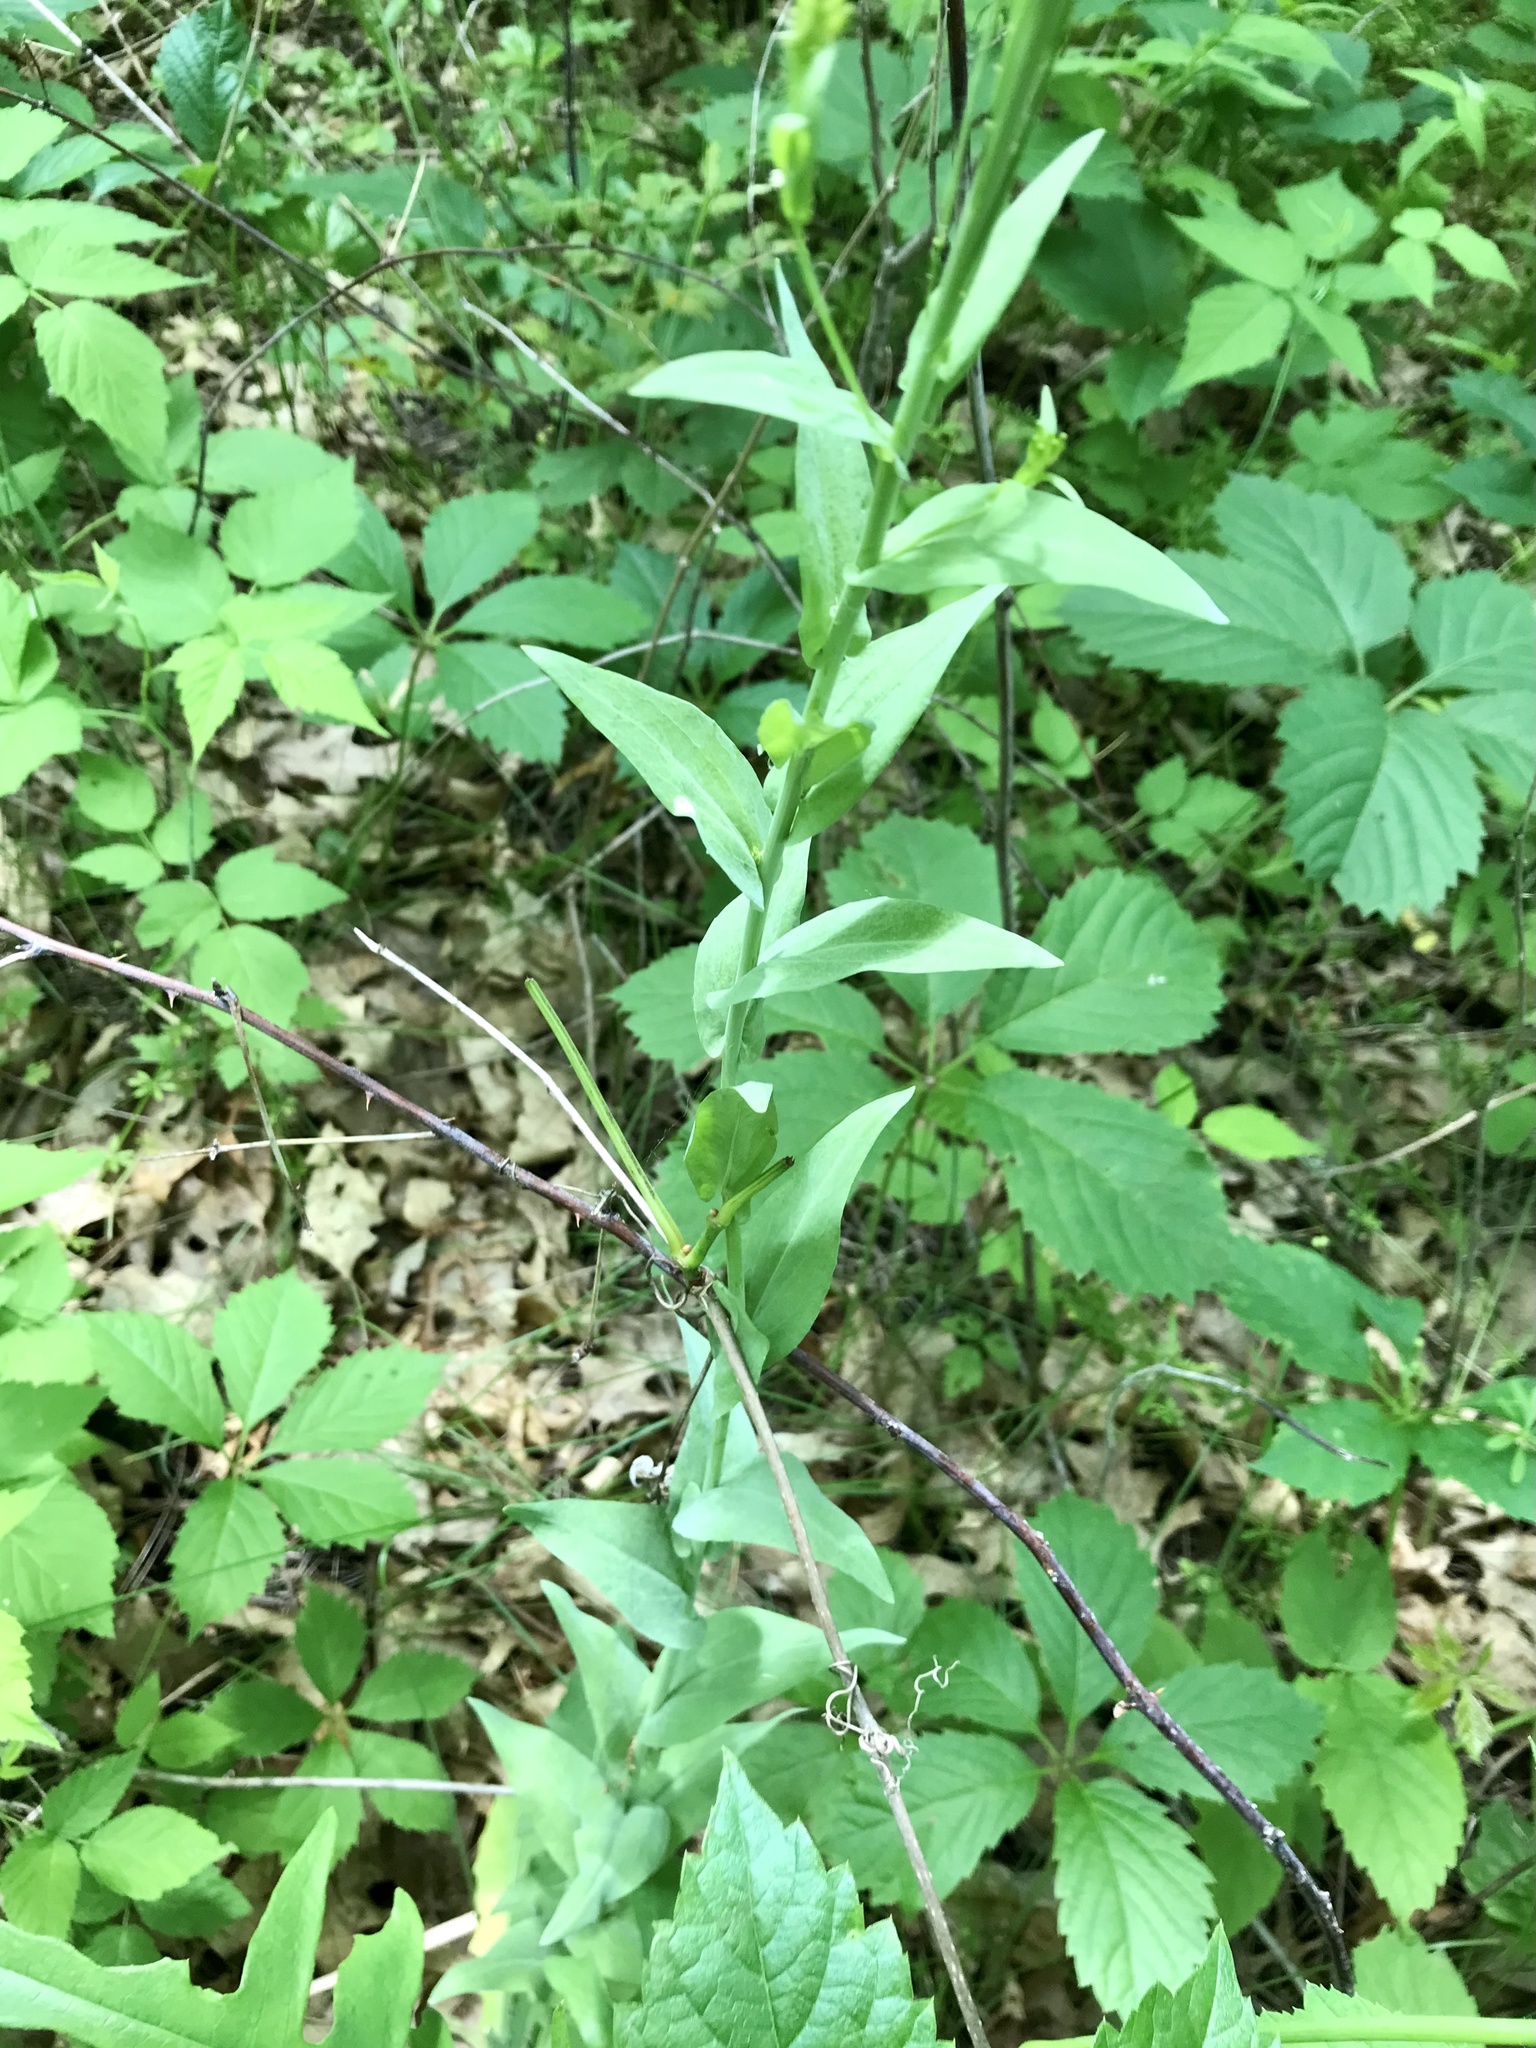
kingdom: Plantae
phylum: Tracheophyta
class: Magnoliopsida
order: Brassicales
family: Brassicaceae
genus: Turritis
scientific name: Turritis glabra
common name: Tower rockcress
